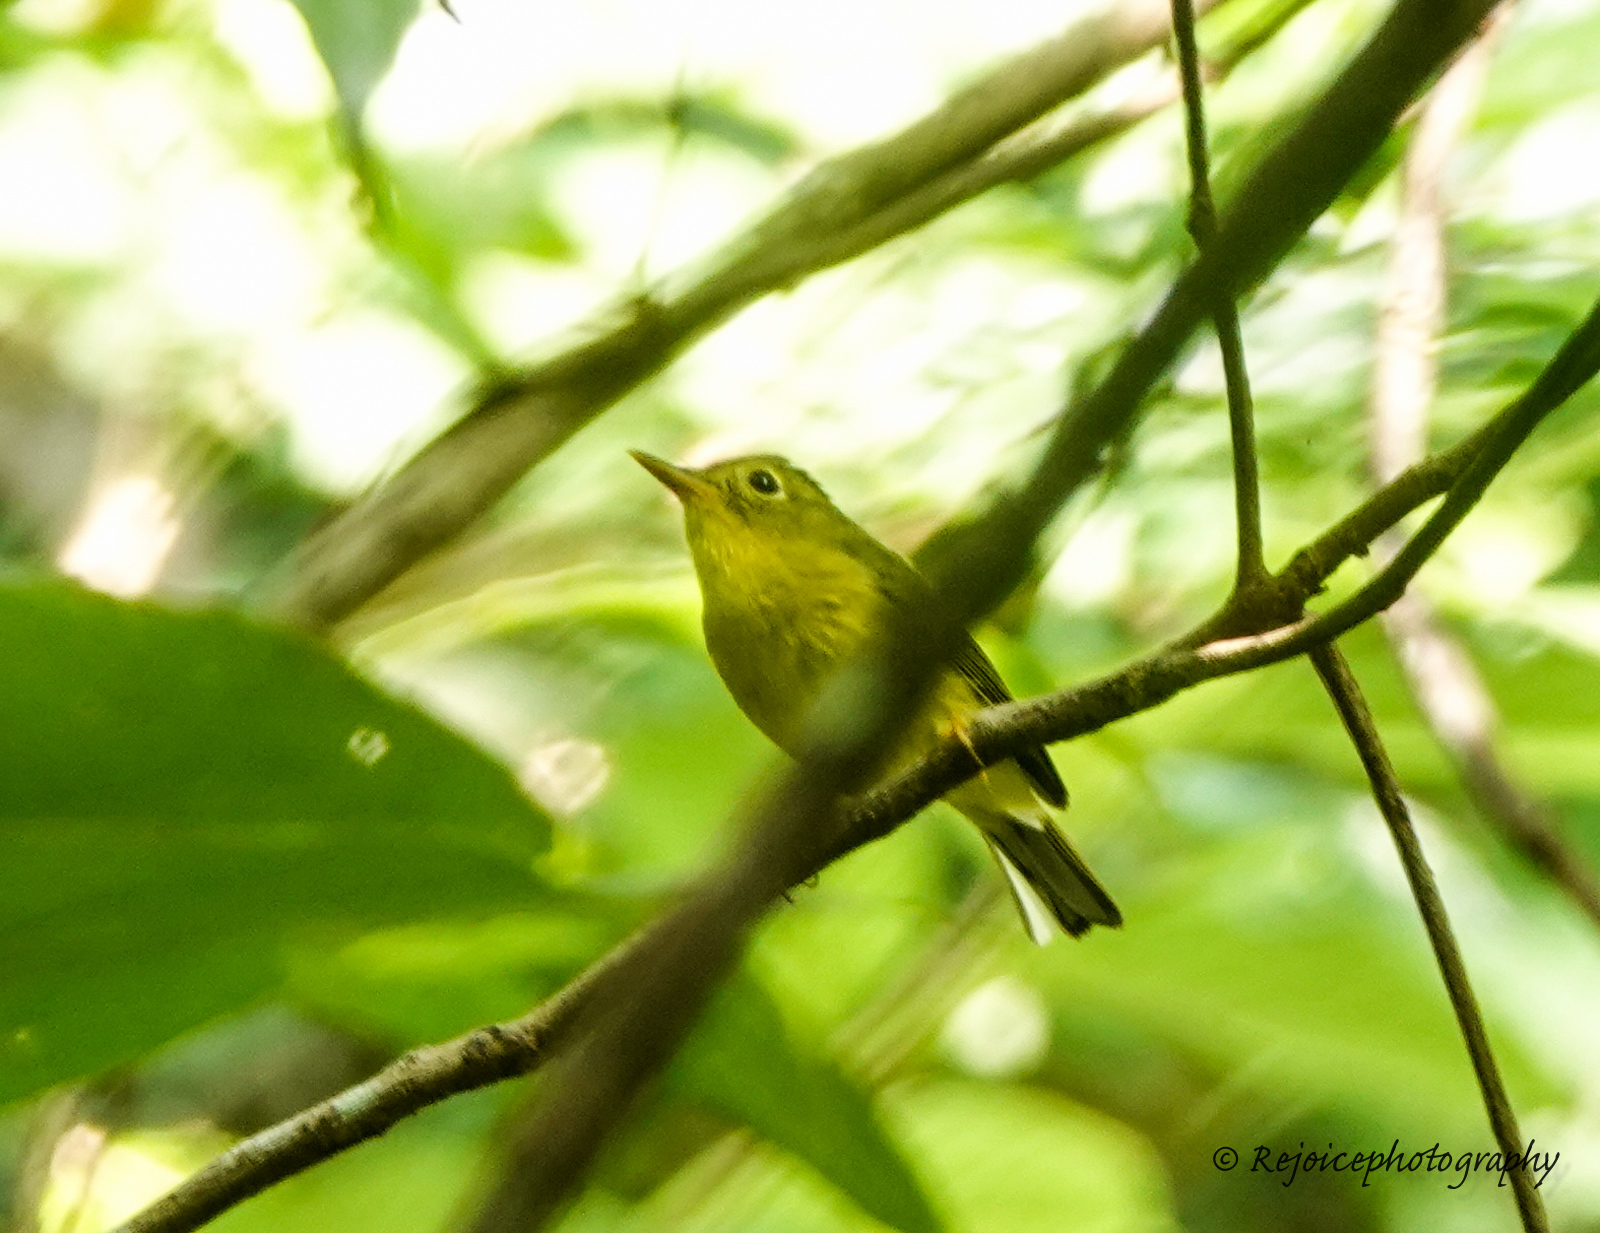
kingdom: Animalia
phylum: Chordata
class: Aves
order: Passeriformes
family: Phylloscopidae
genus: Seicercus
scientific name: Seicercus burkii
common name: Green-crowned warbler
